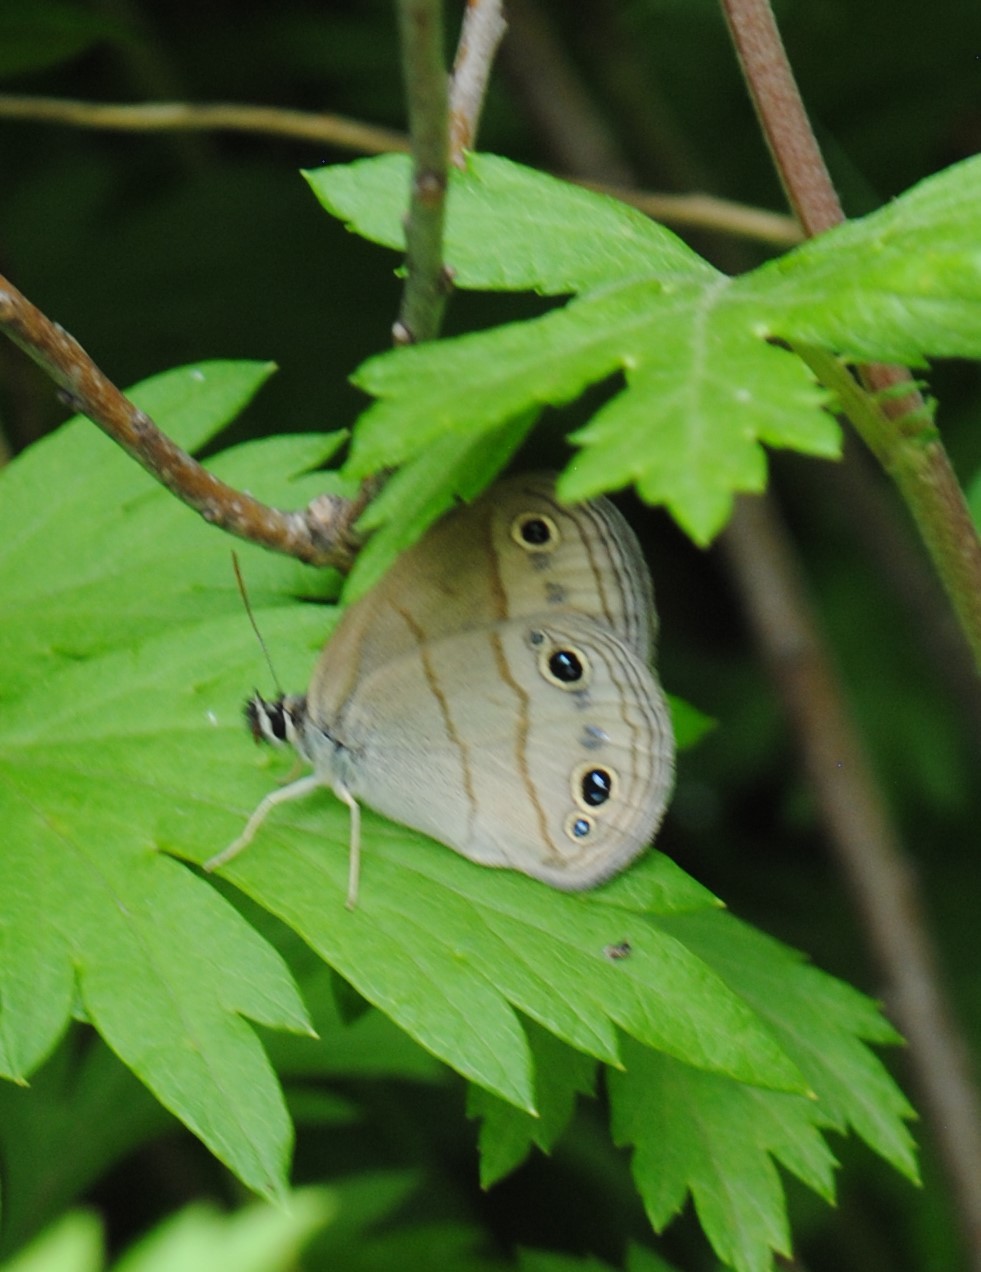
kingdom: Animalia
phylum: Arthropoda
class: Insecta
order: Lepidoptera
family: Nymphalidae
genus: Euptychia
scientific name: Euptychia cymela
